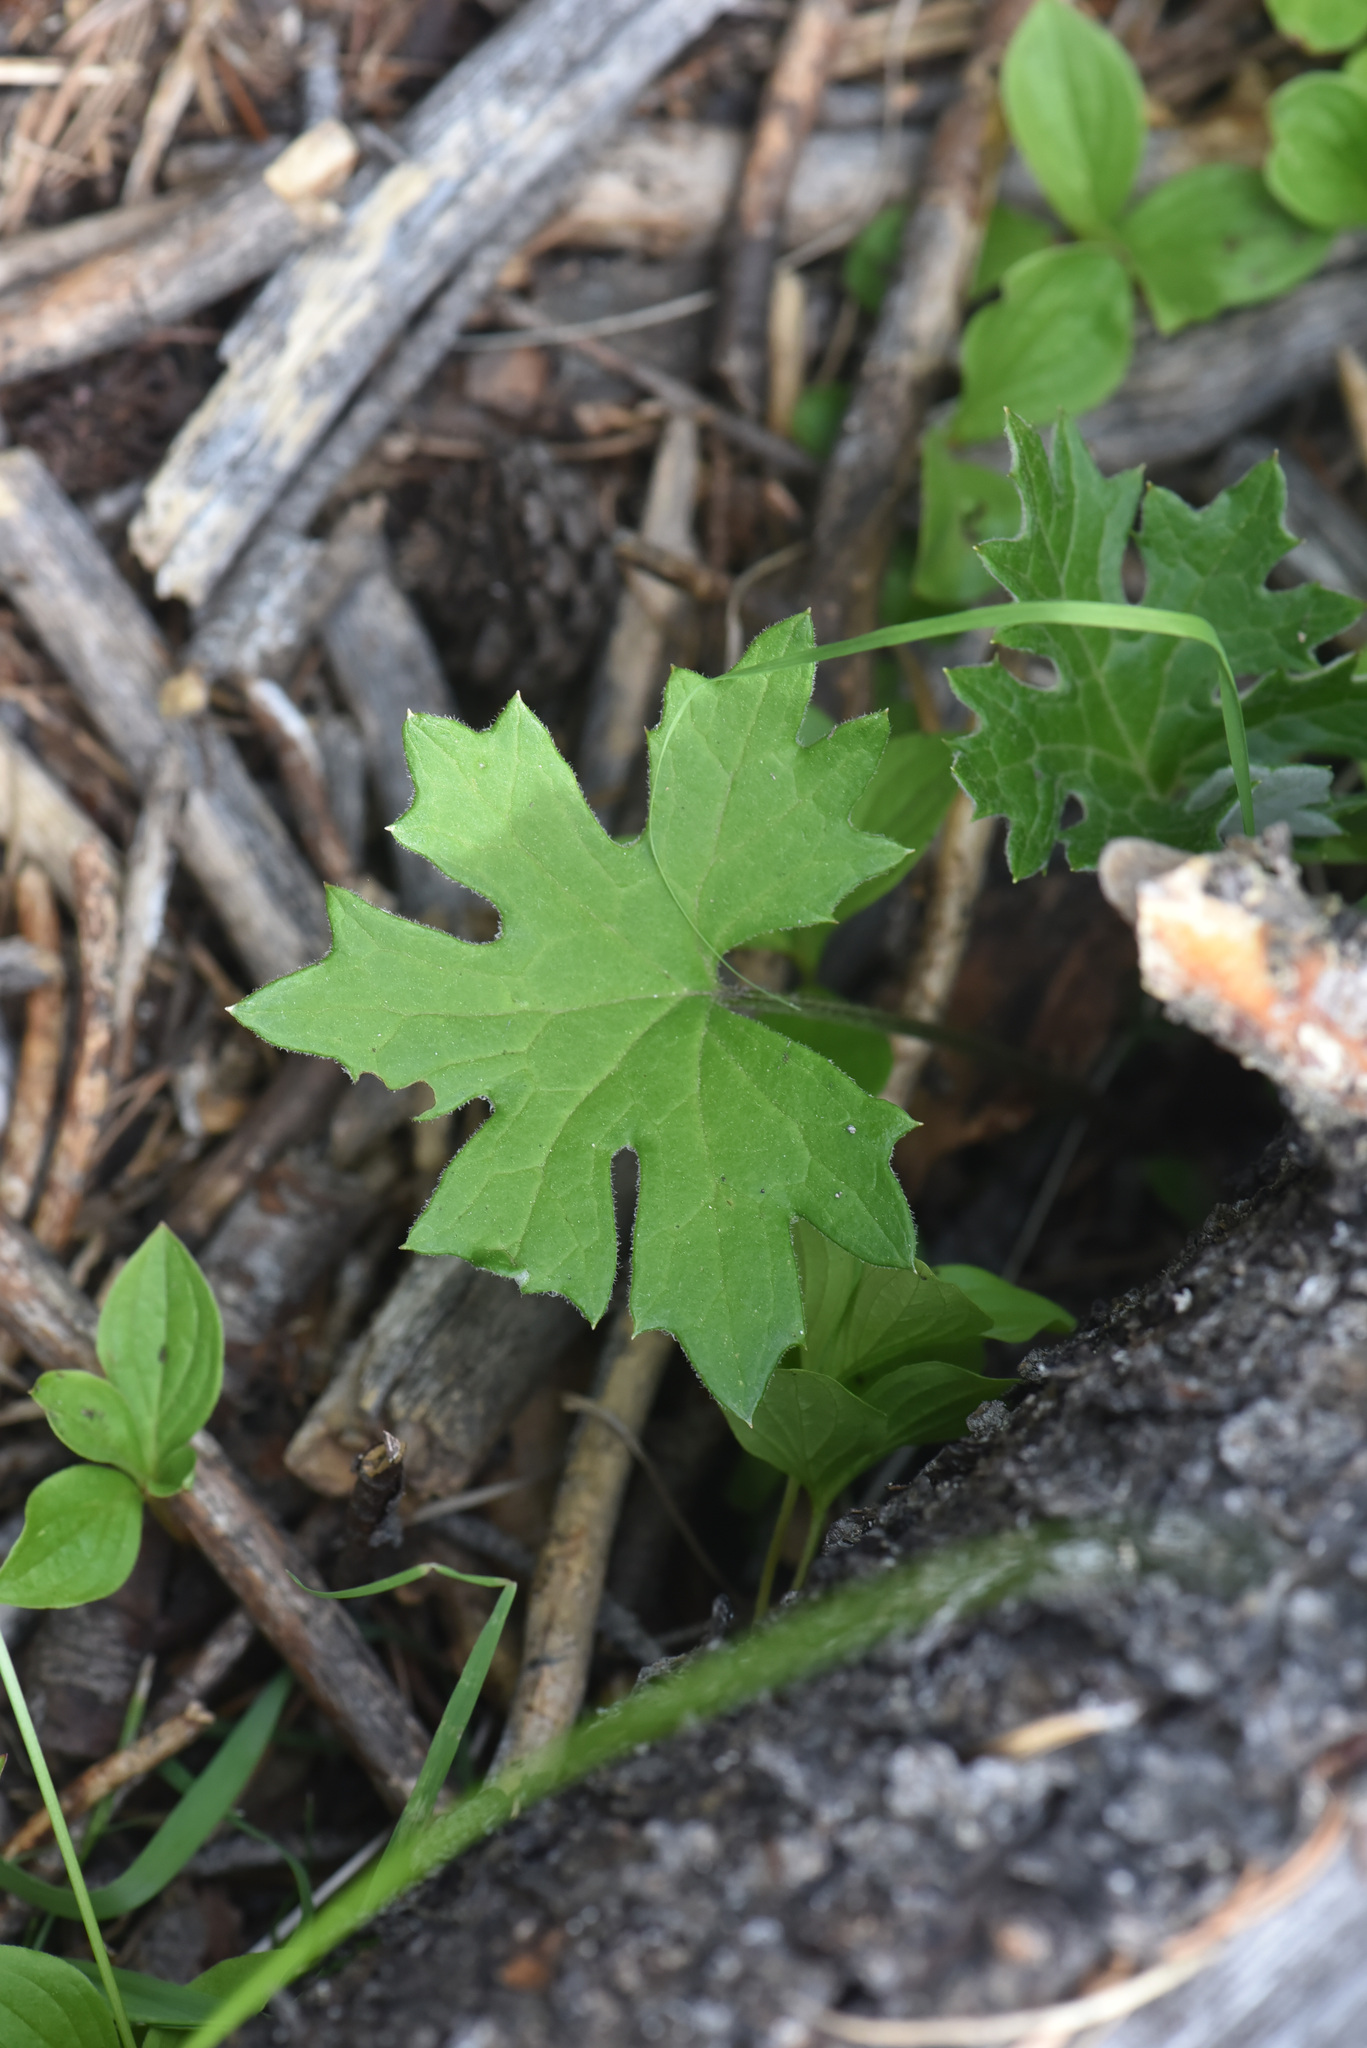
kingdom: Plantae
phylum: Tracheophyta
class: Magnoliopsida
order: Asterales
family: Asteraceae
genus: Petasites
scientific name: Petasites frigidus
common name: Arctic butterbur
